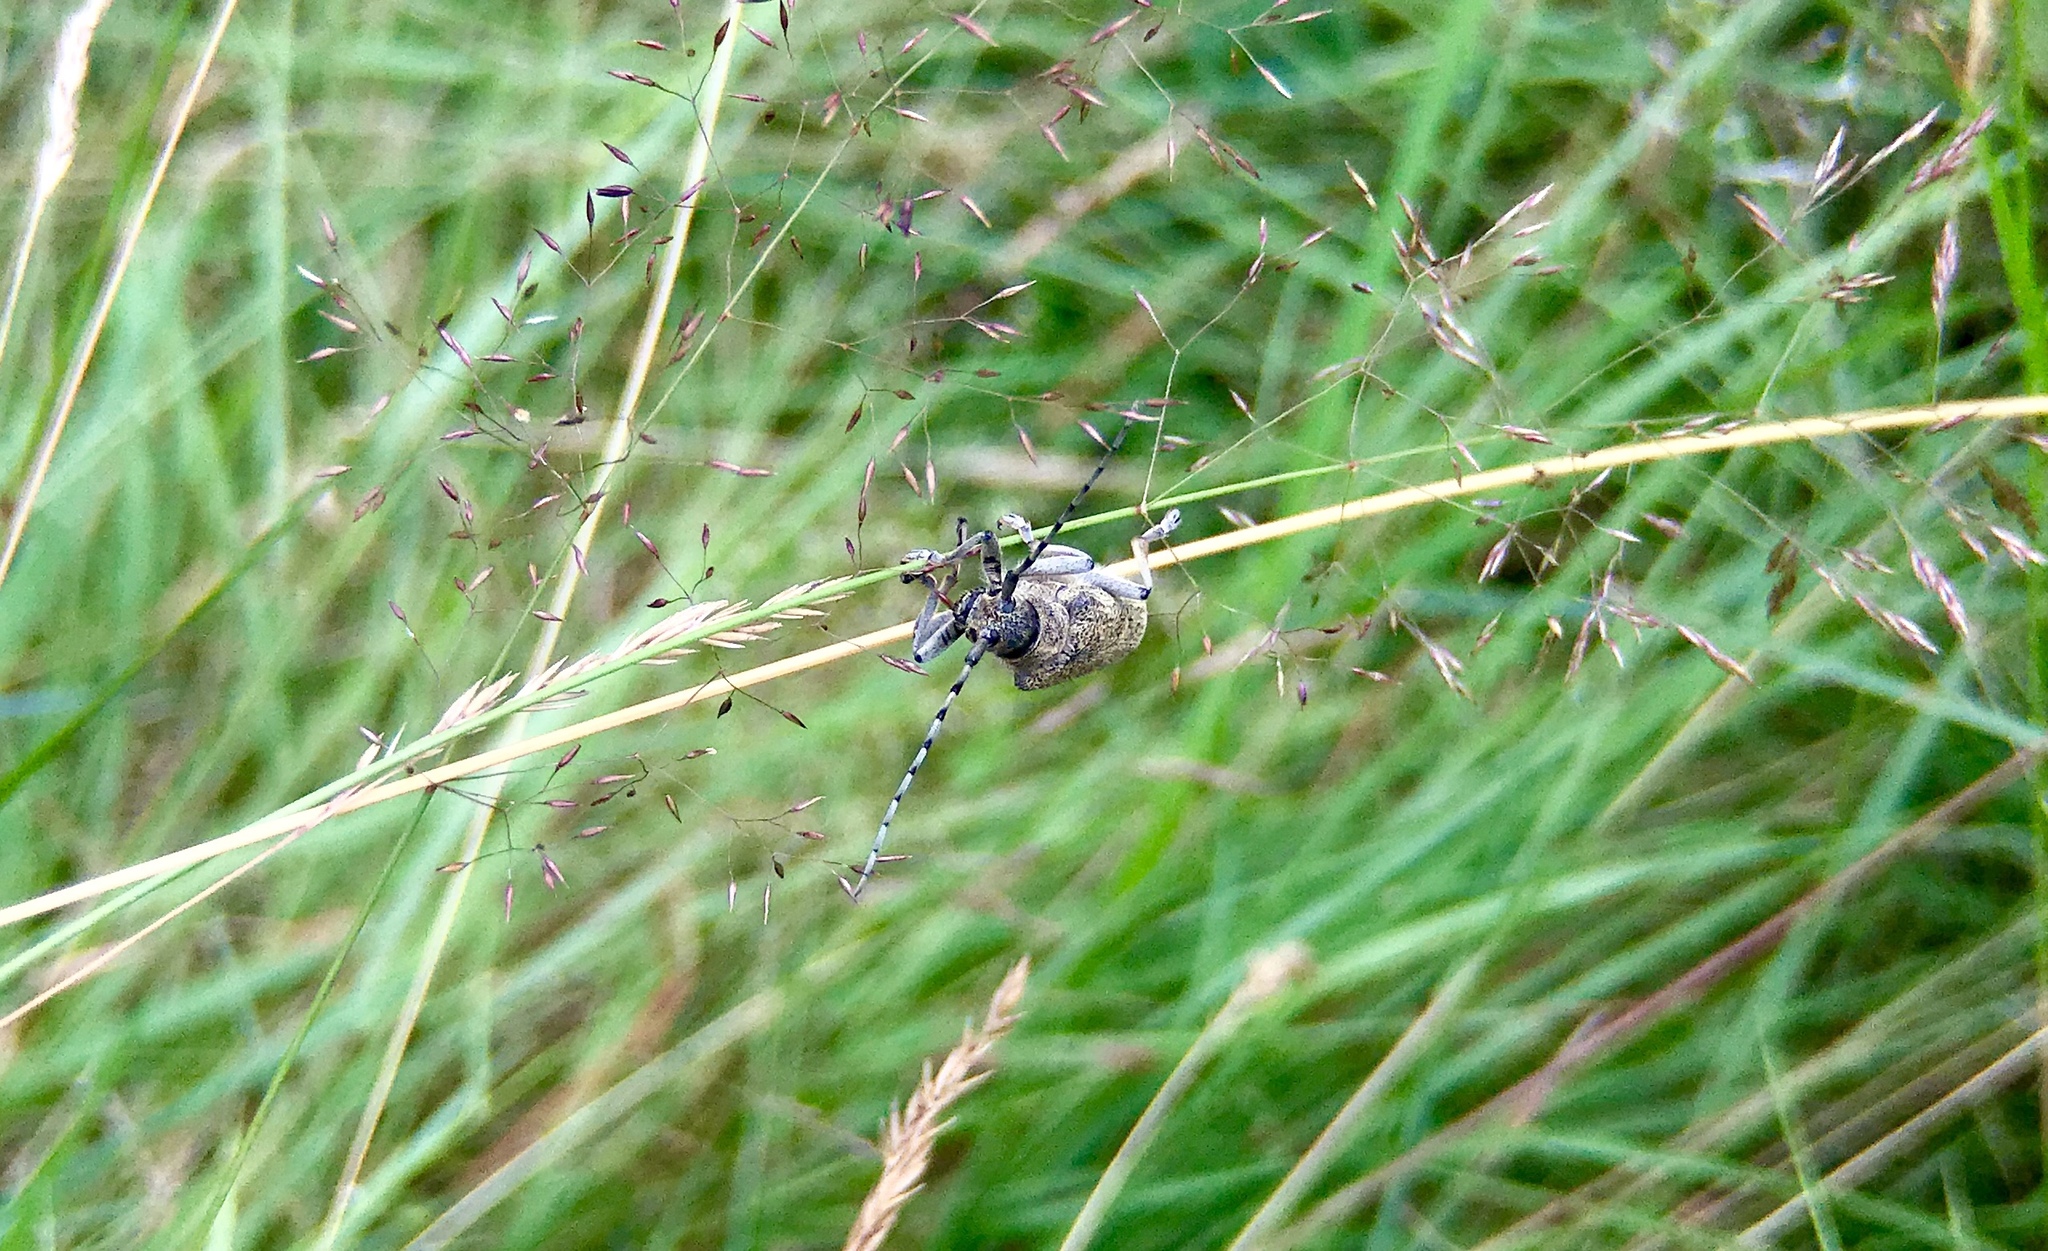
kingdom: Animalia
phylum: Arthropoda
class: Insecta
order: Coleoptera
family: Cerambycidae
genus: Saperda
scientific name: Saperda carcharias
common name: Poplar borer
